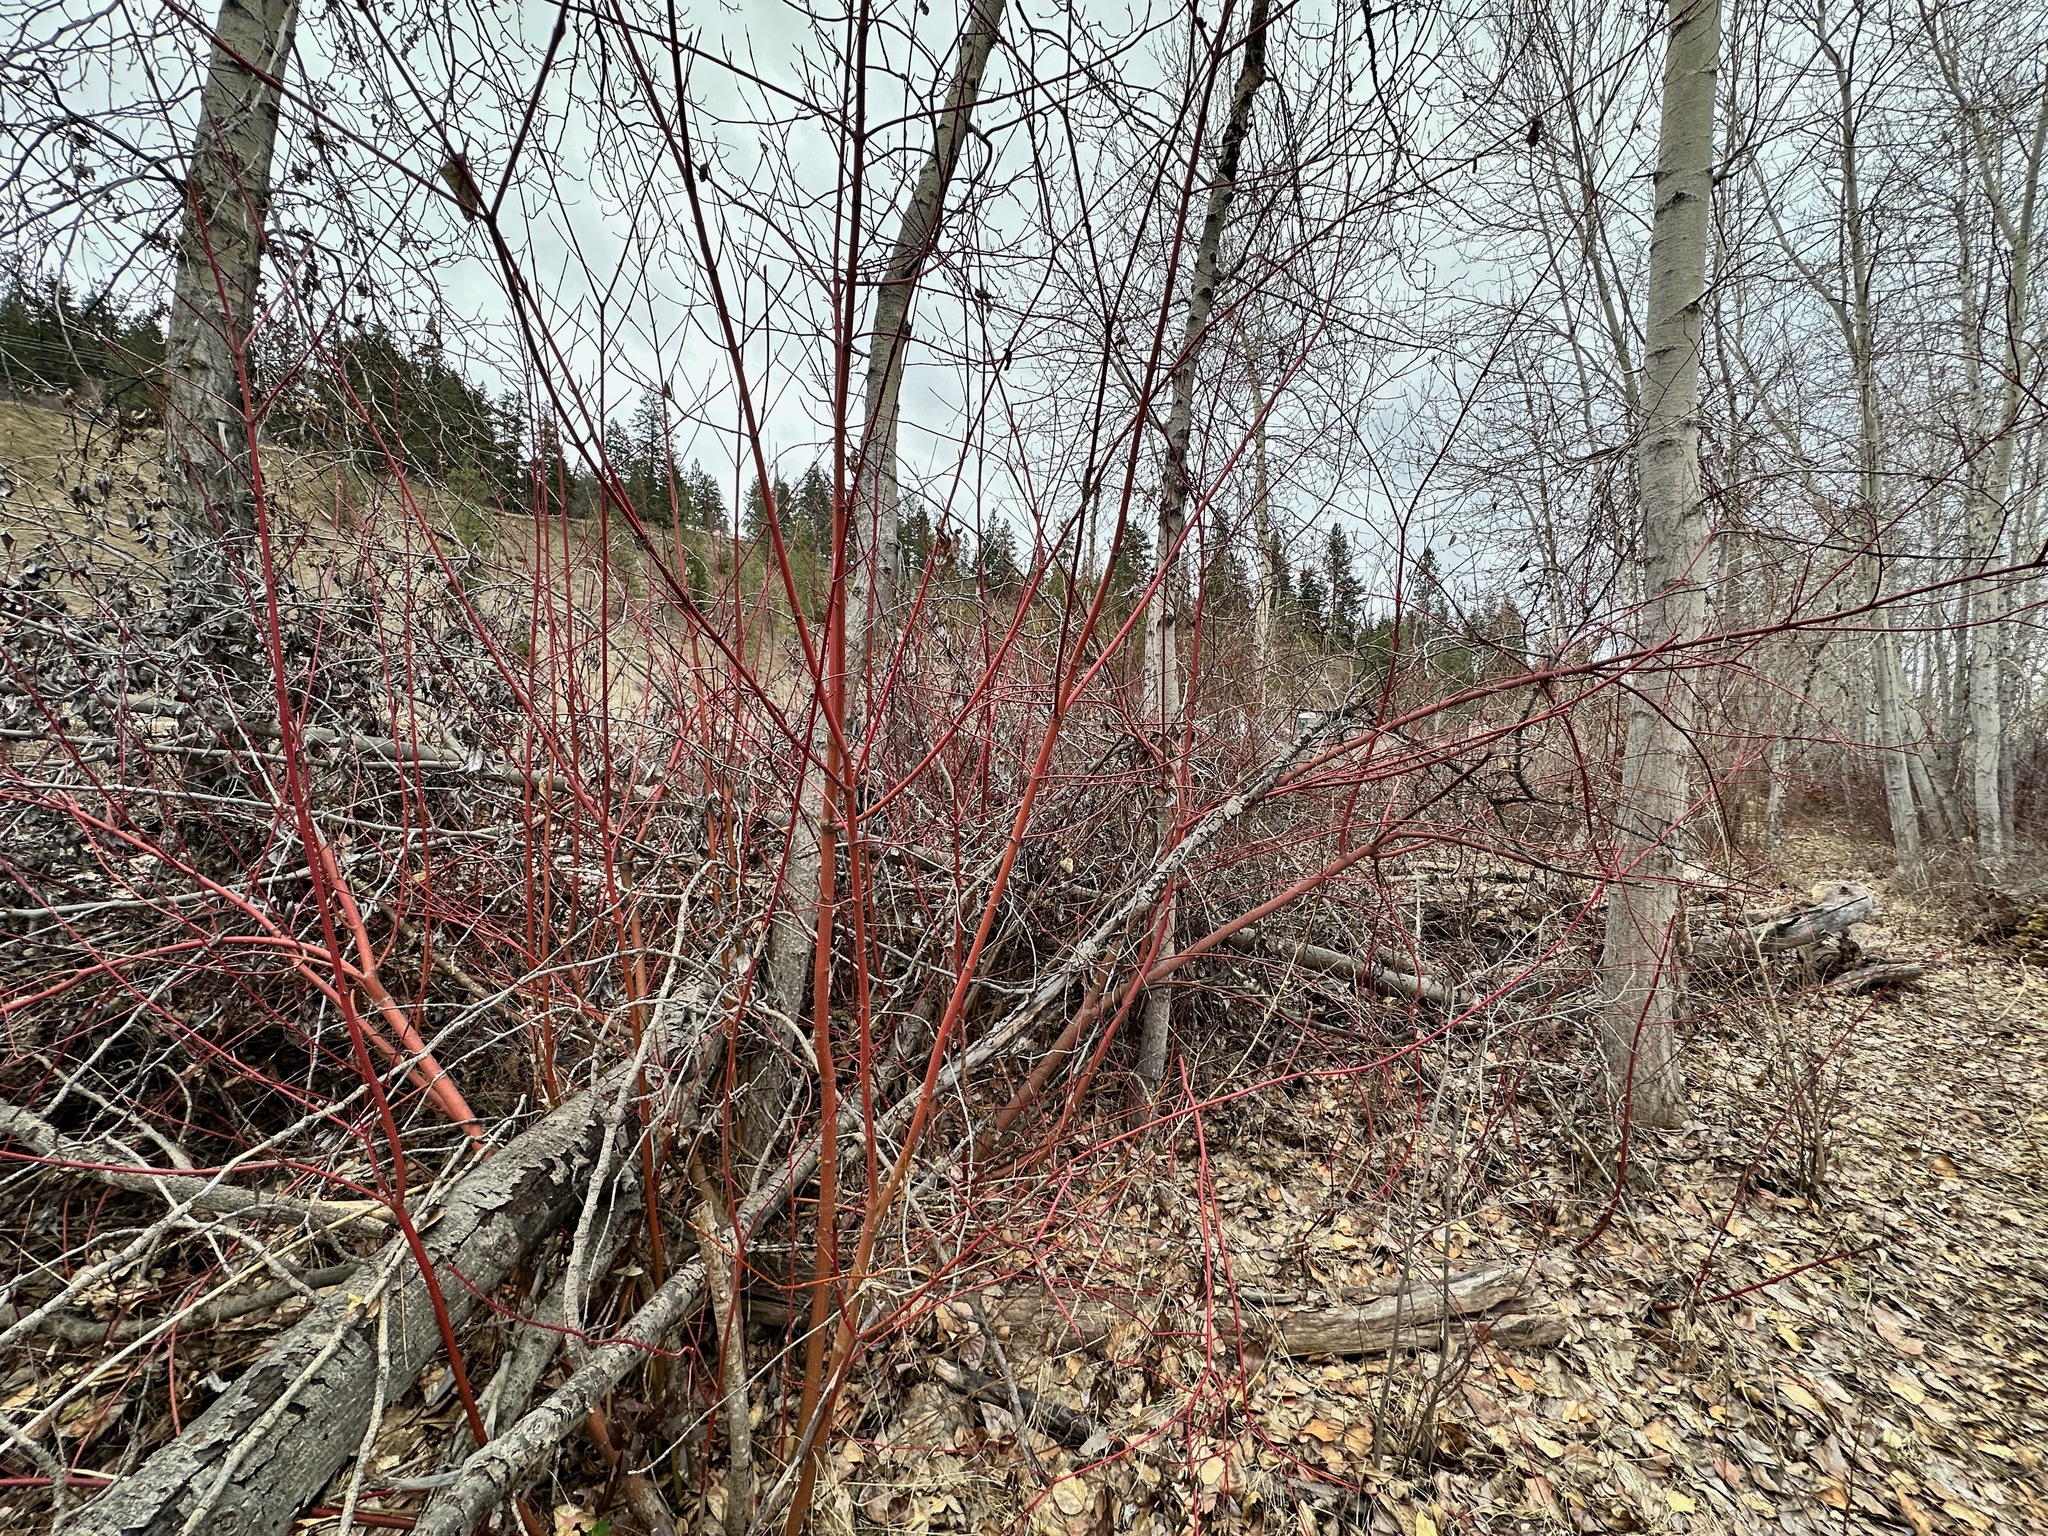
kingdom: Plantae
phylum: Tracheophyta
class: Magnoliopsida
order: Cornales
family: Cornaceae
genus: Cornus
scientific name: Cornus sericea
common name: Red-osier dogwood
